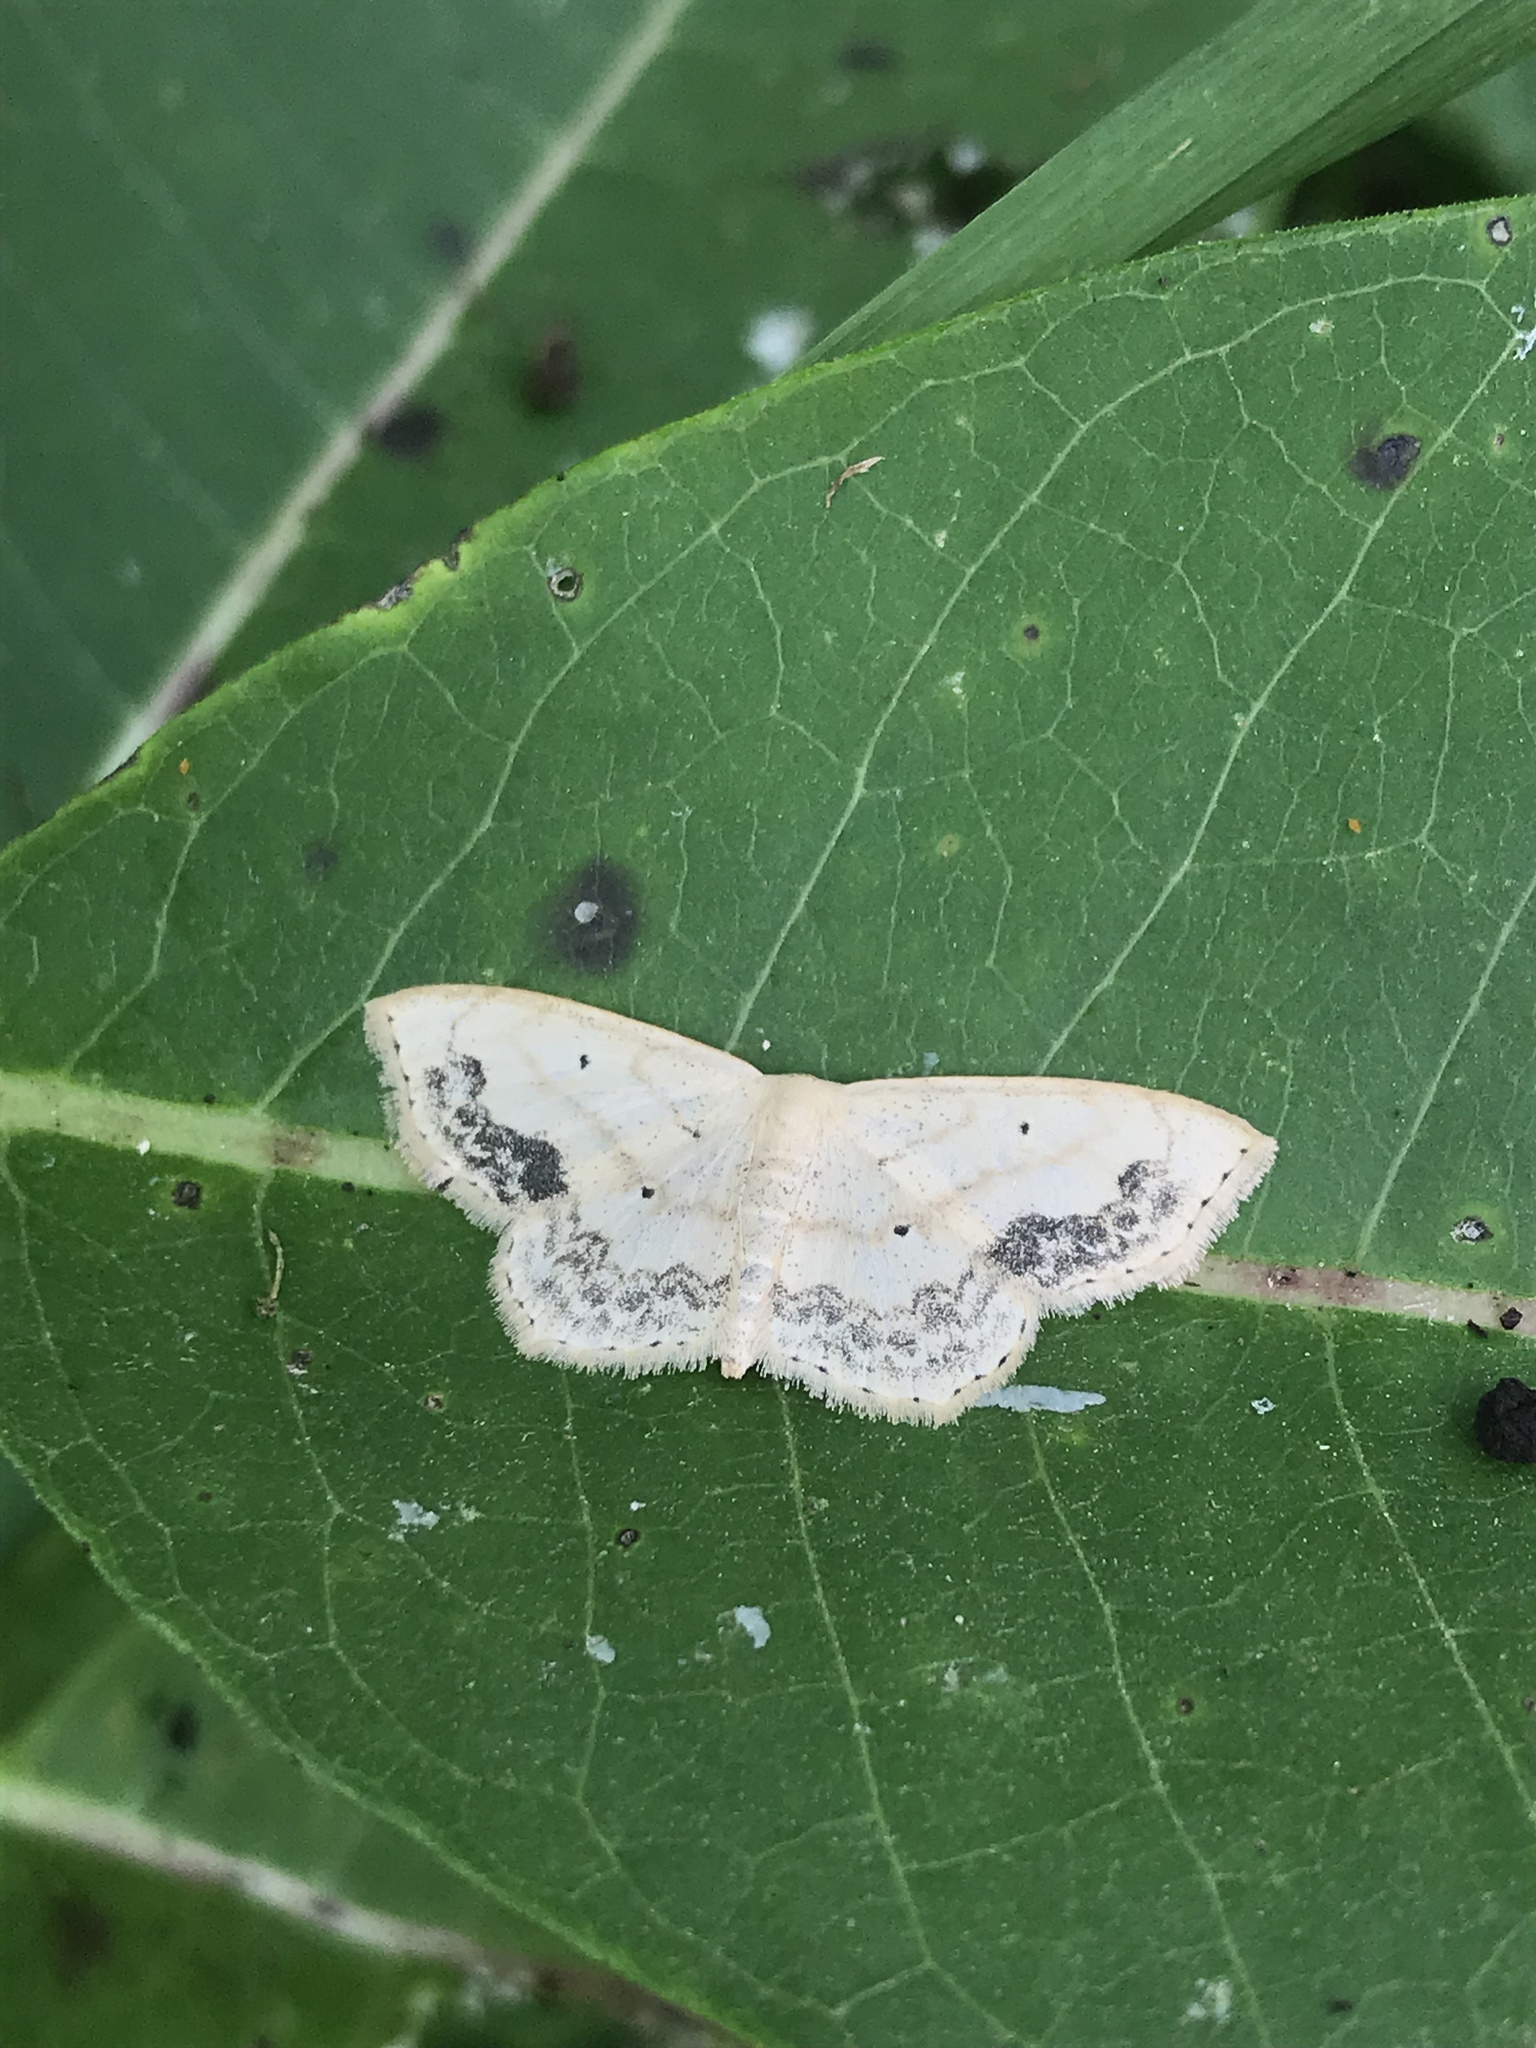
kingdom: Animalia
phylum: Arthropoda
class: Insecta
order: Lepidoptera
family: Geometridae
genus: Scopula
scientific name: Scopula limboundata
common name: Large lace border
